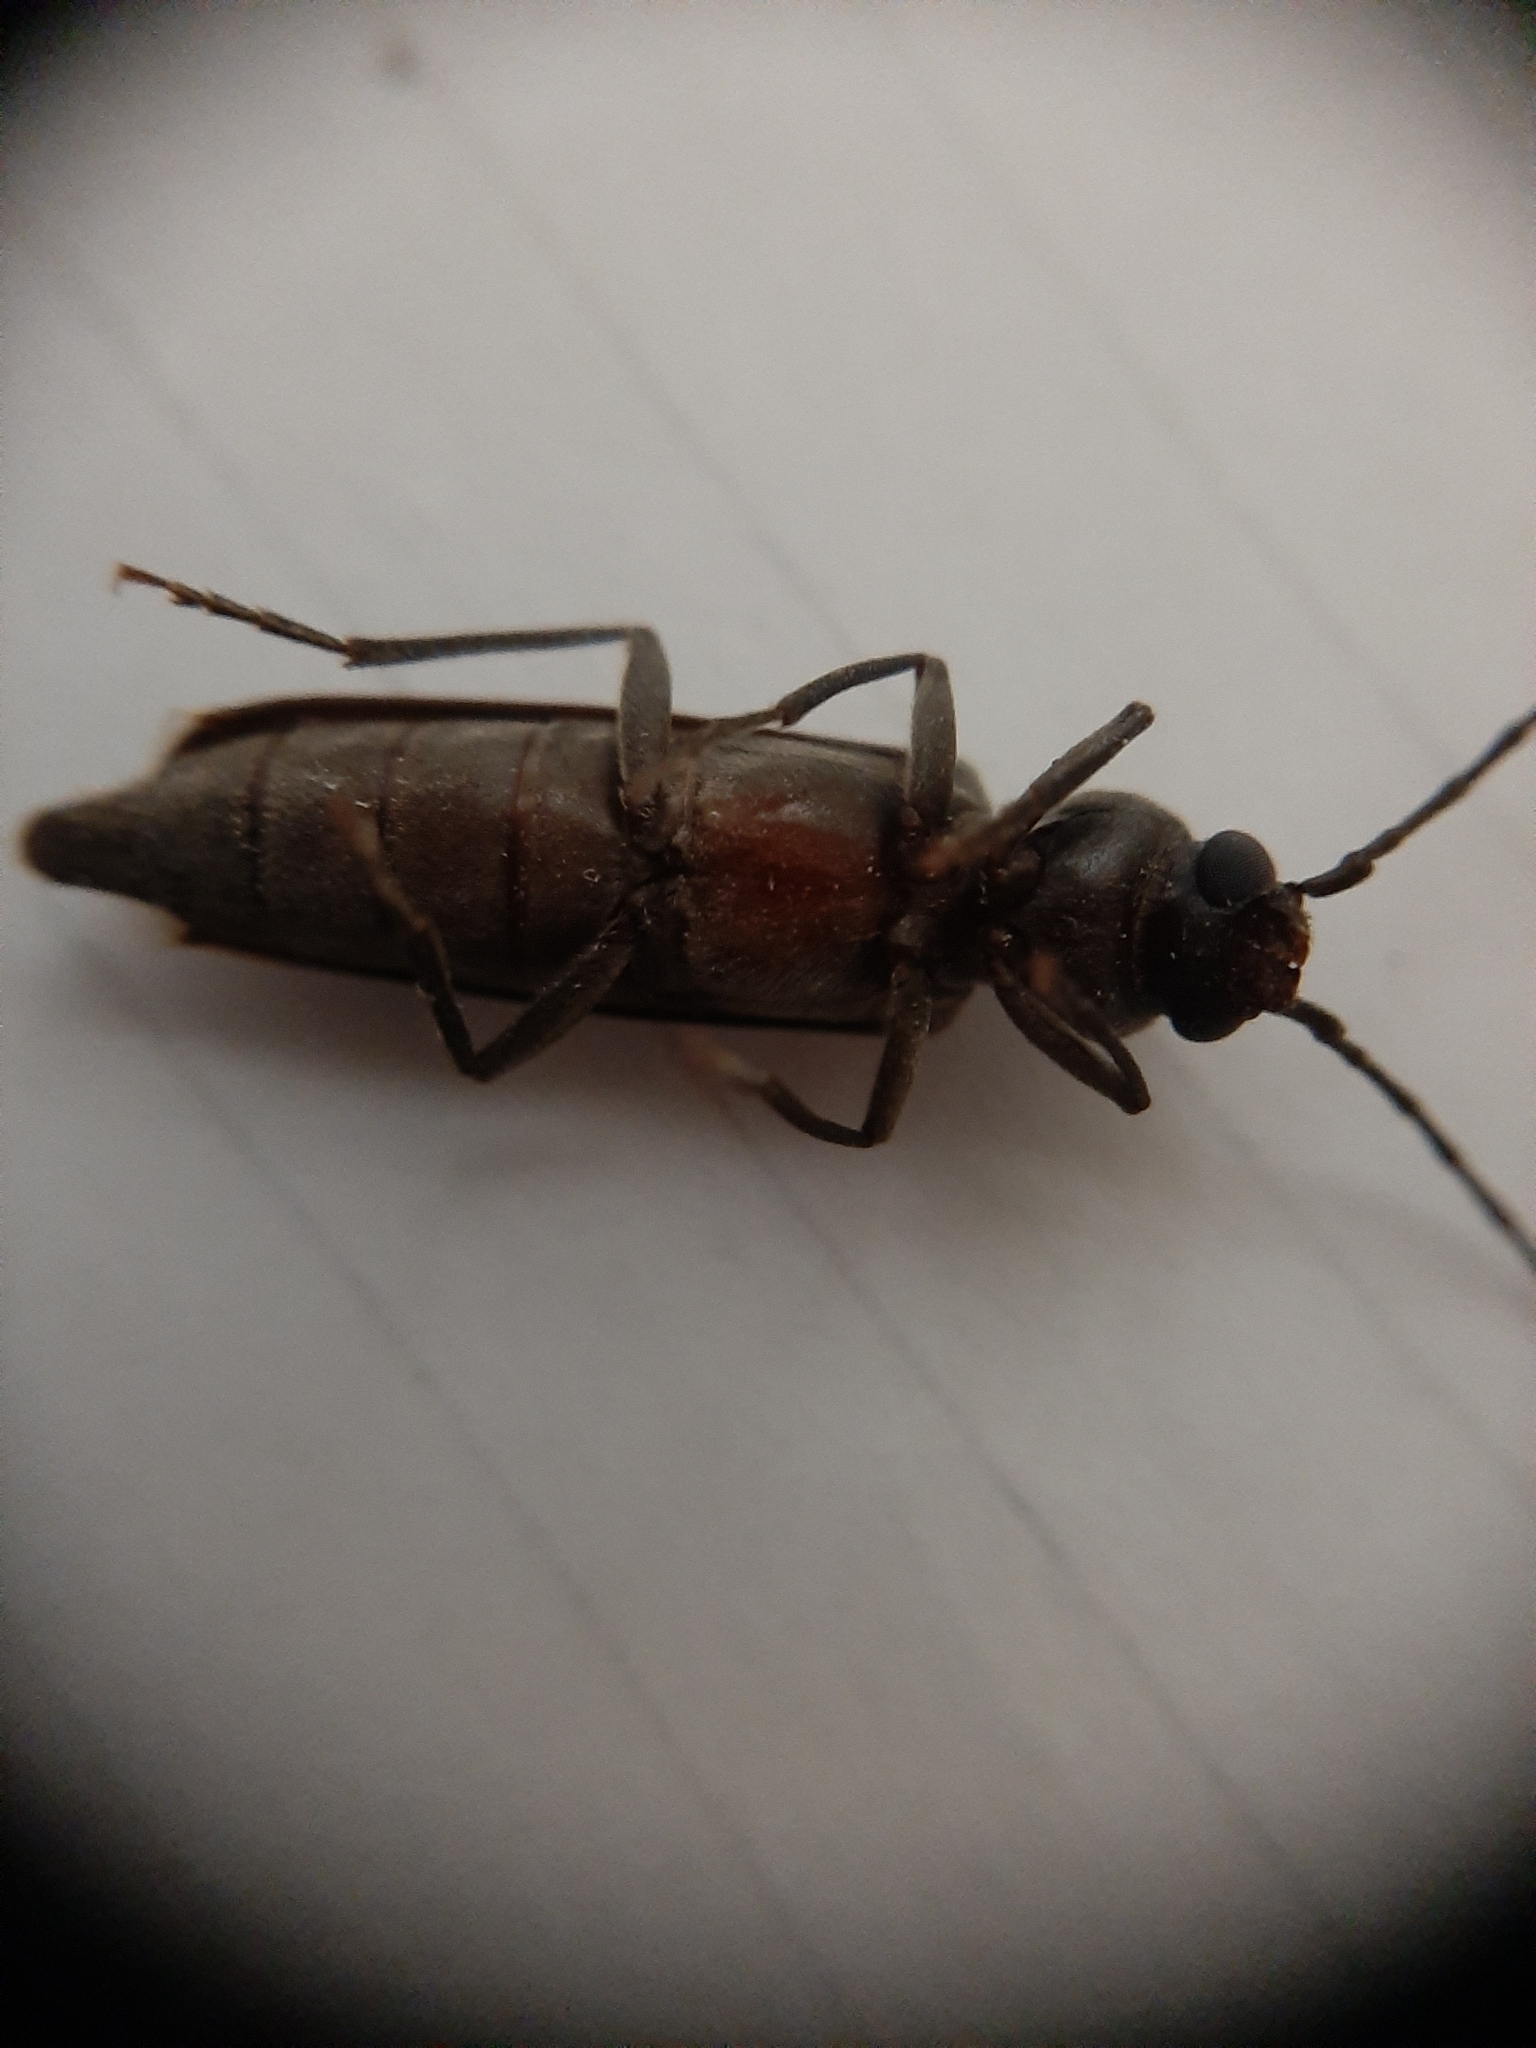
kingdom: Animalia
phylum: Arthropoda
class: Insecta
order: Coleoptera
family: Cerambycidae
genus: Arhopalus
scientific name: Arhopalus ferus
